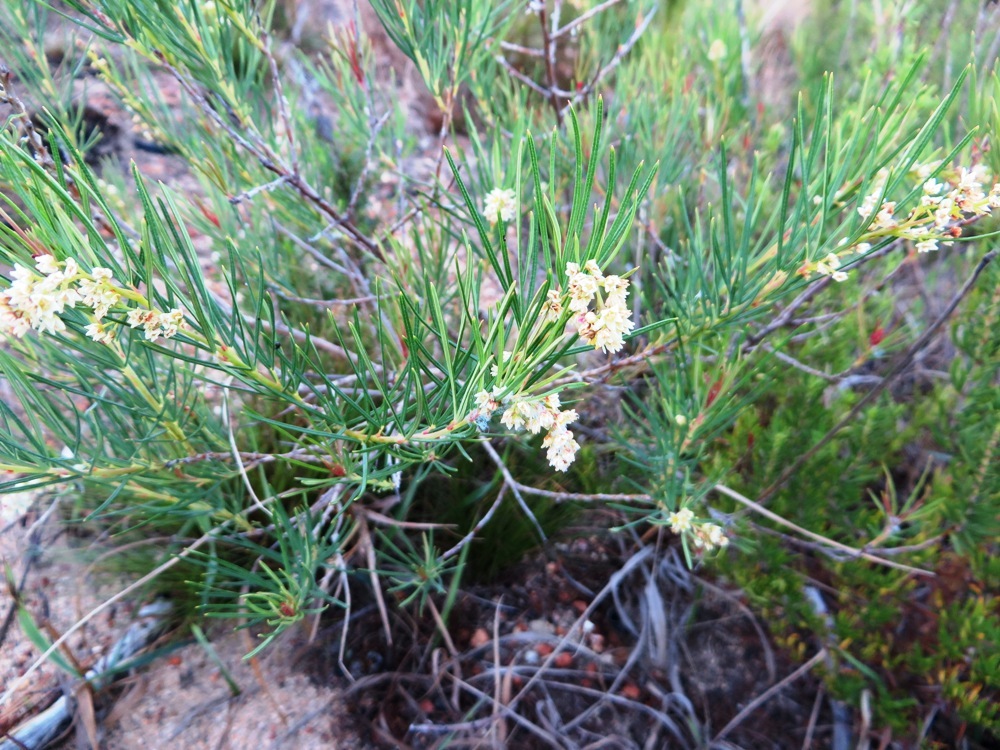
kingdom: Plantae
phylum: Tracheophyta
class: Magnoliopsida
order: Sapindales
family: Anacardiaceae
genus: Searsia
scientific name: Searsia rosmarinifolia
